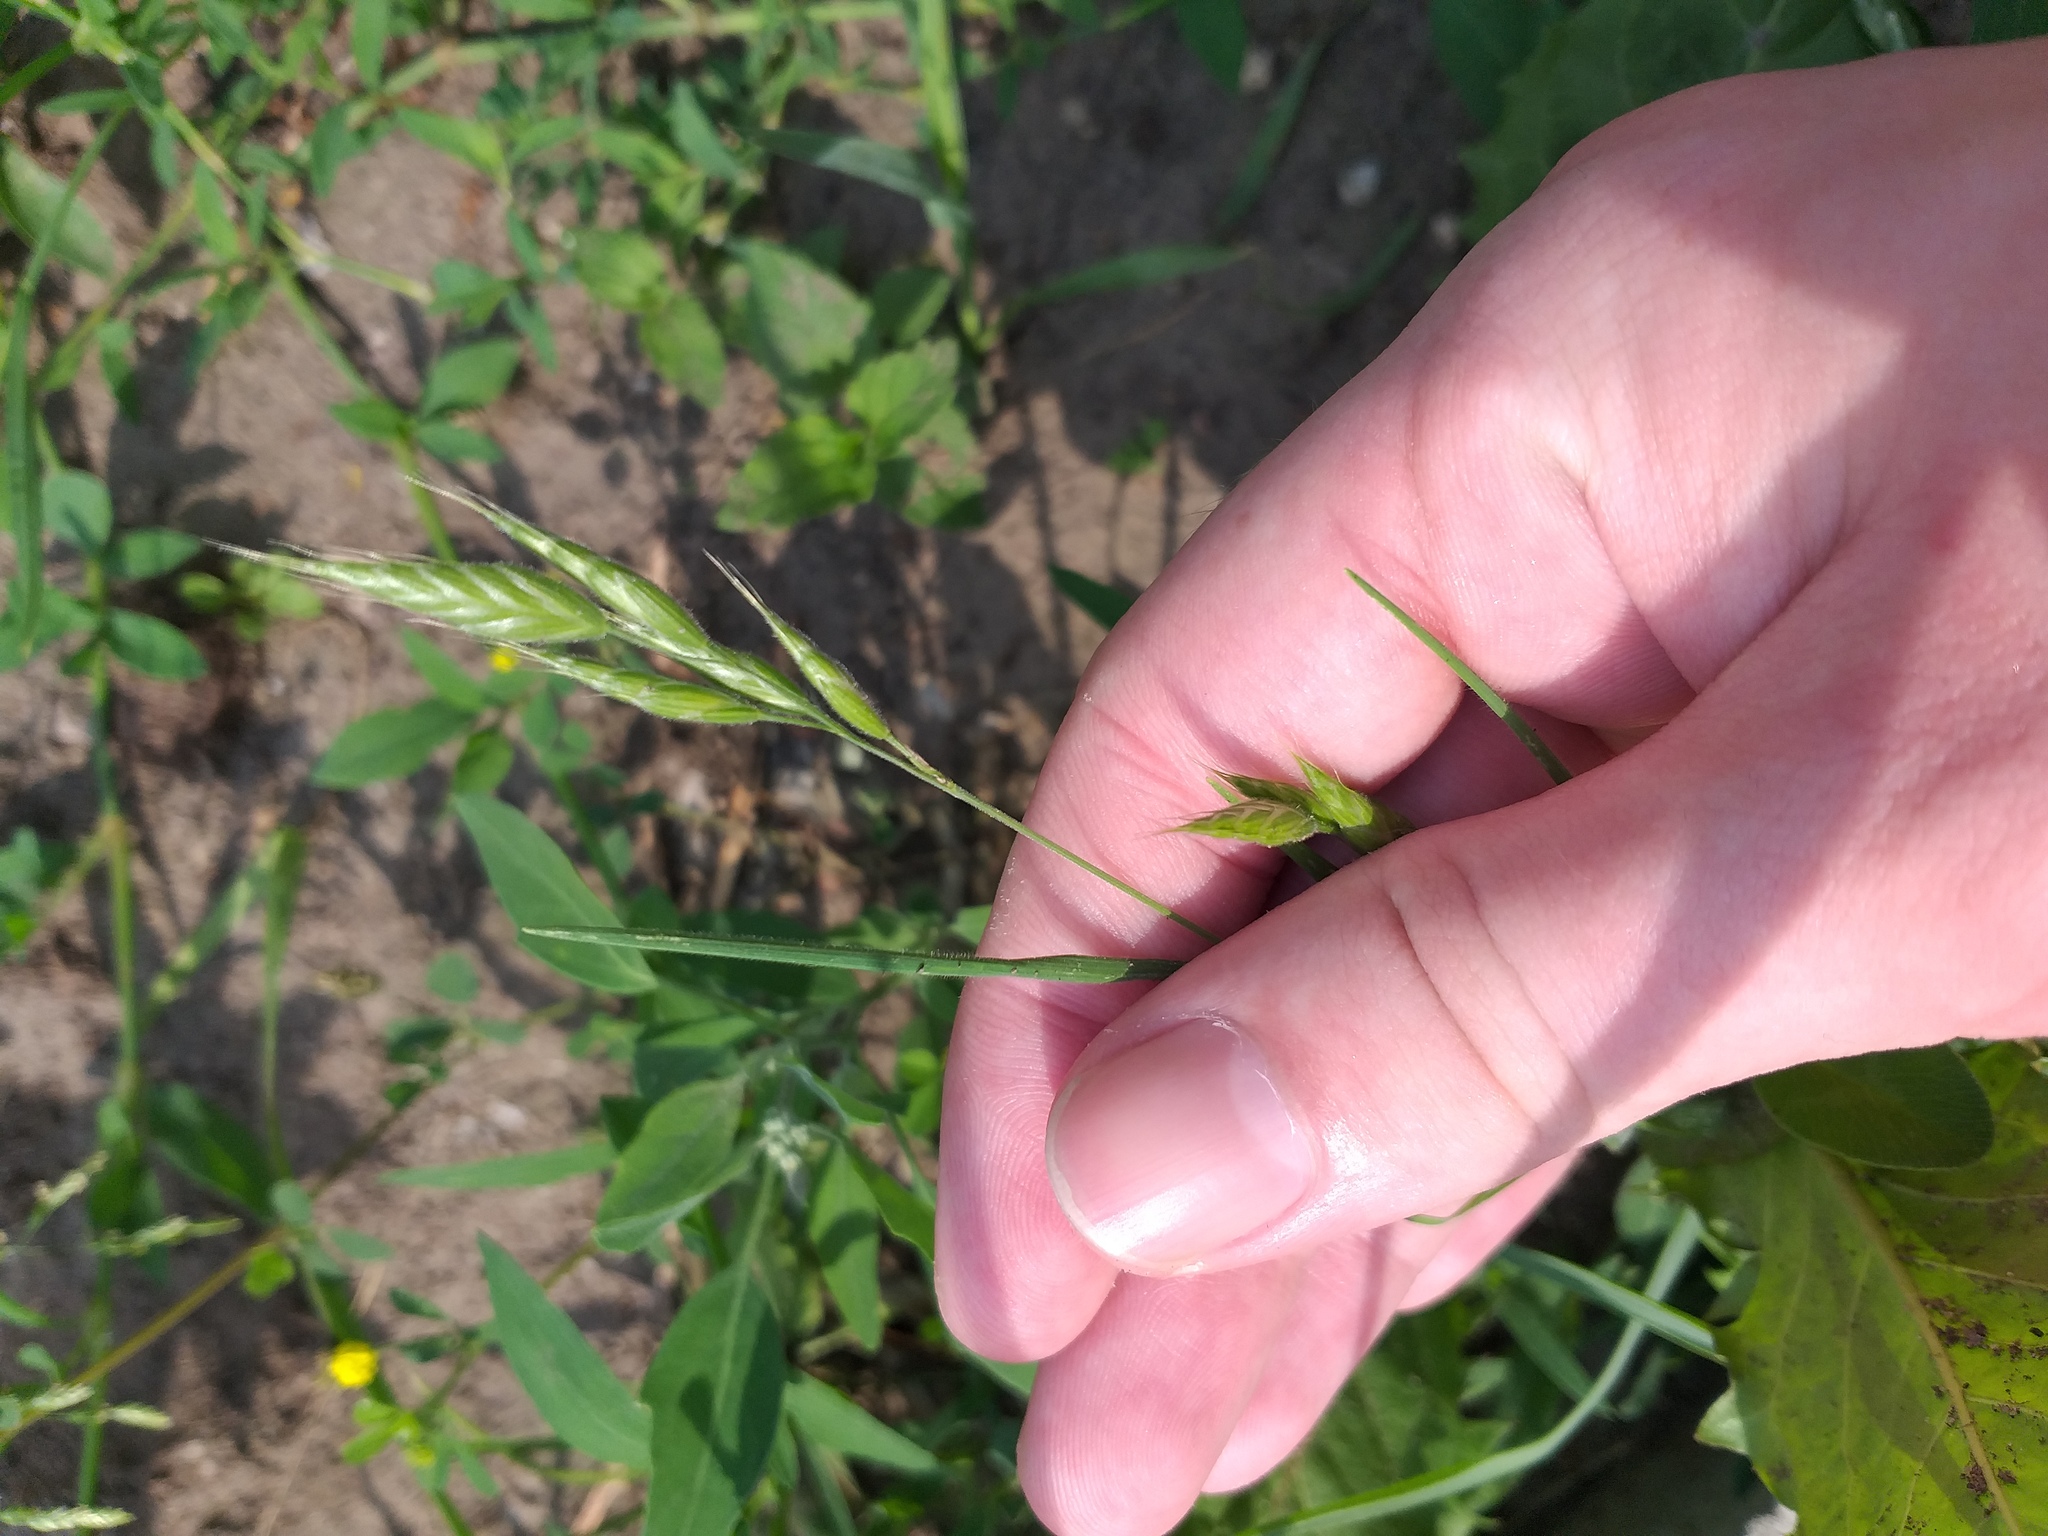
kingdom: Plantae
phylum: Tracheophyta
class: Liliopsida
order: Poales
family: Poaceae
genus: Bromus
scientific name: Bromus hordeaceus
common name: Soft brome
